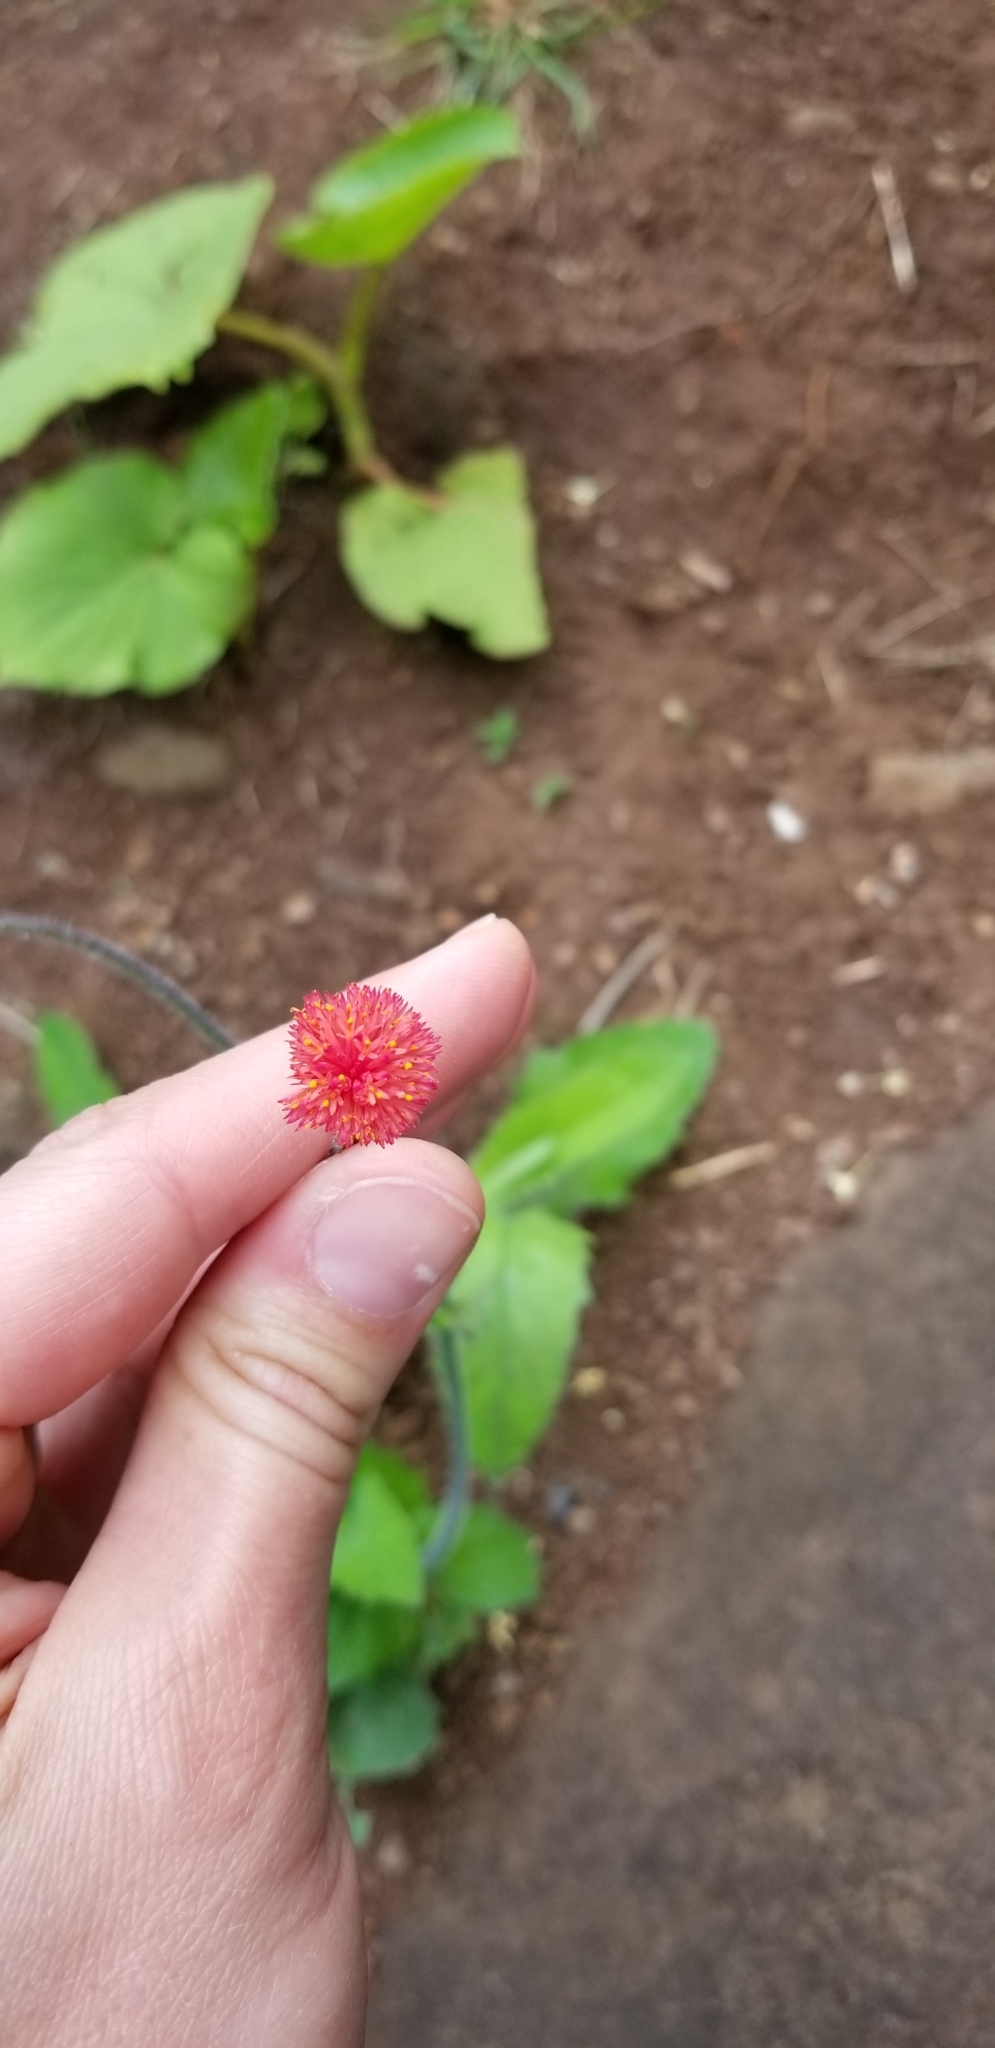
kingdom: Plantae
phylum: Tracheophyta
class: Magnoliopsida
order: Asterales
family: Asteraceae
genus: Emilia
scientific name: Emilia fosbergii
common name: Florida tasselflower
